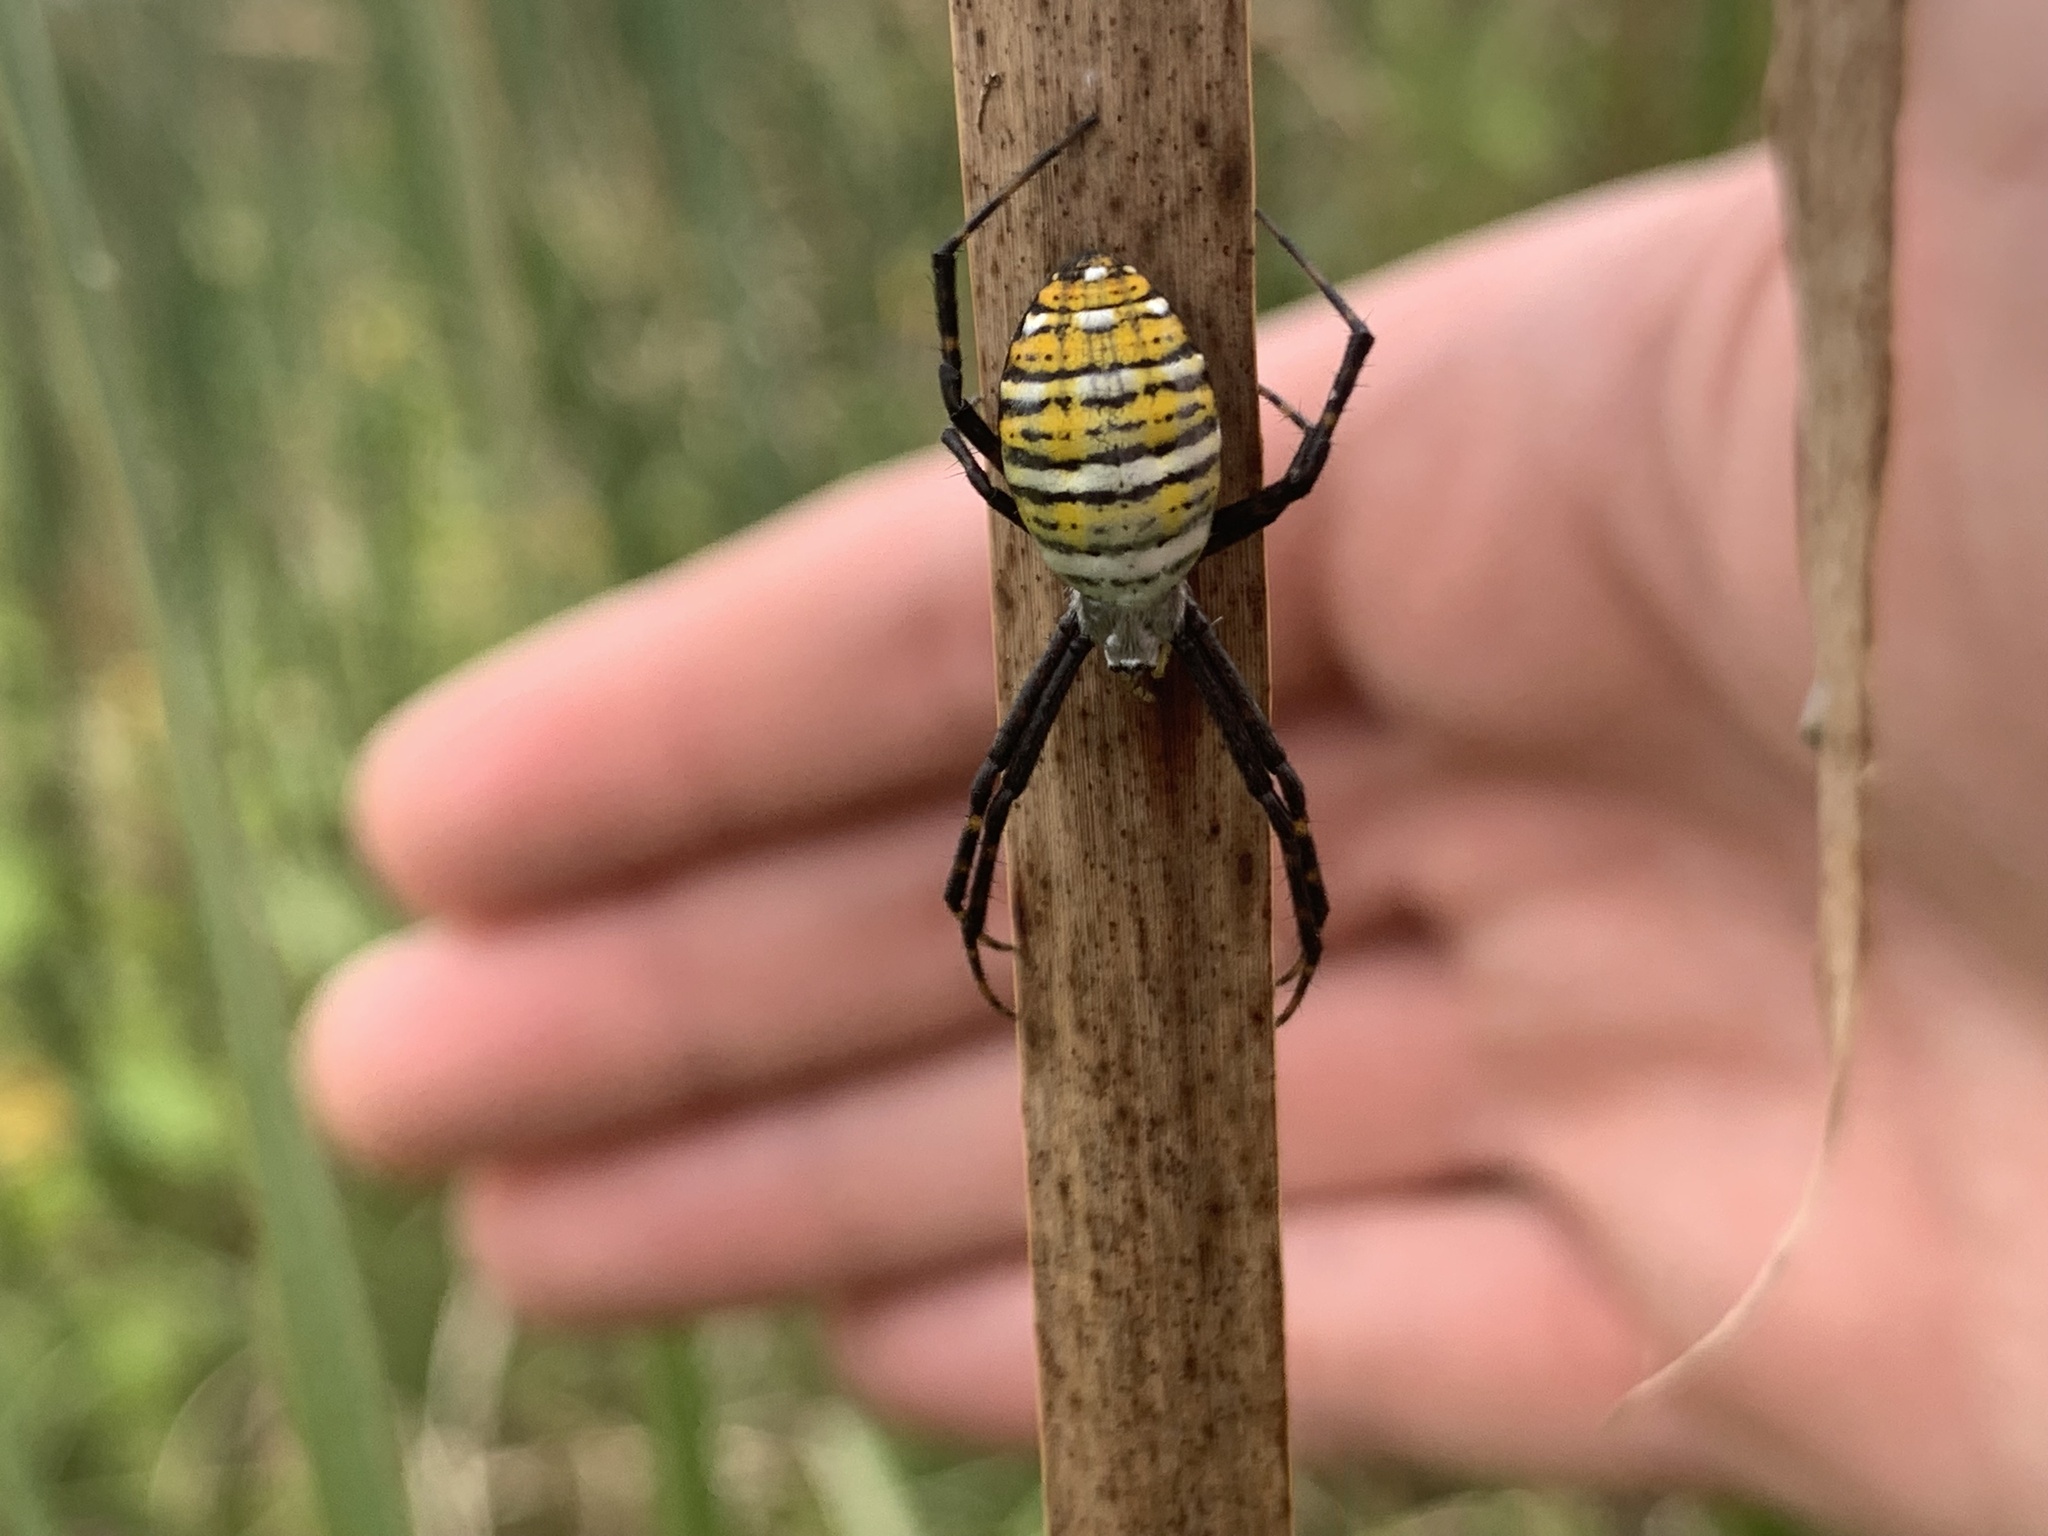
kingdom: Animalia
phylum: Arthropoda
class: Arachnida
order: Araneae
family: Araneidae
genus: Argiope
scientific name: Argiope trifasciata
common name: Banded garden spider
